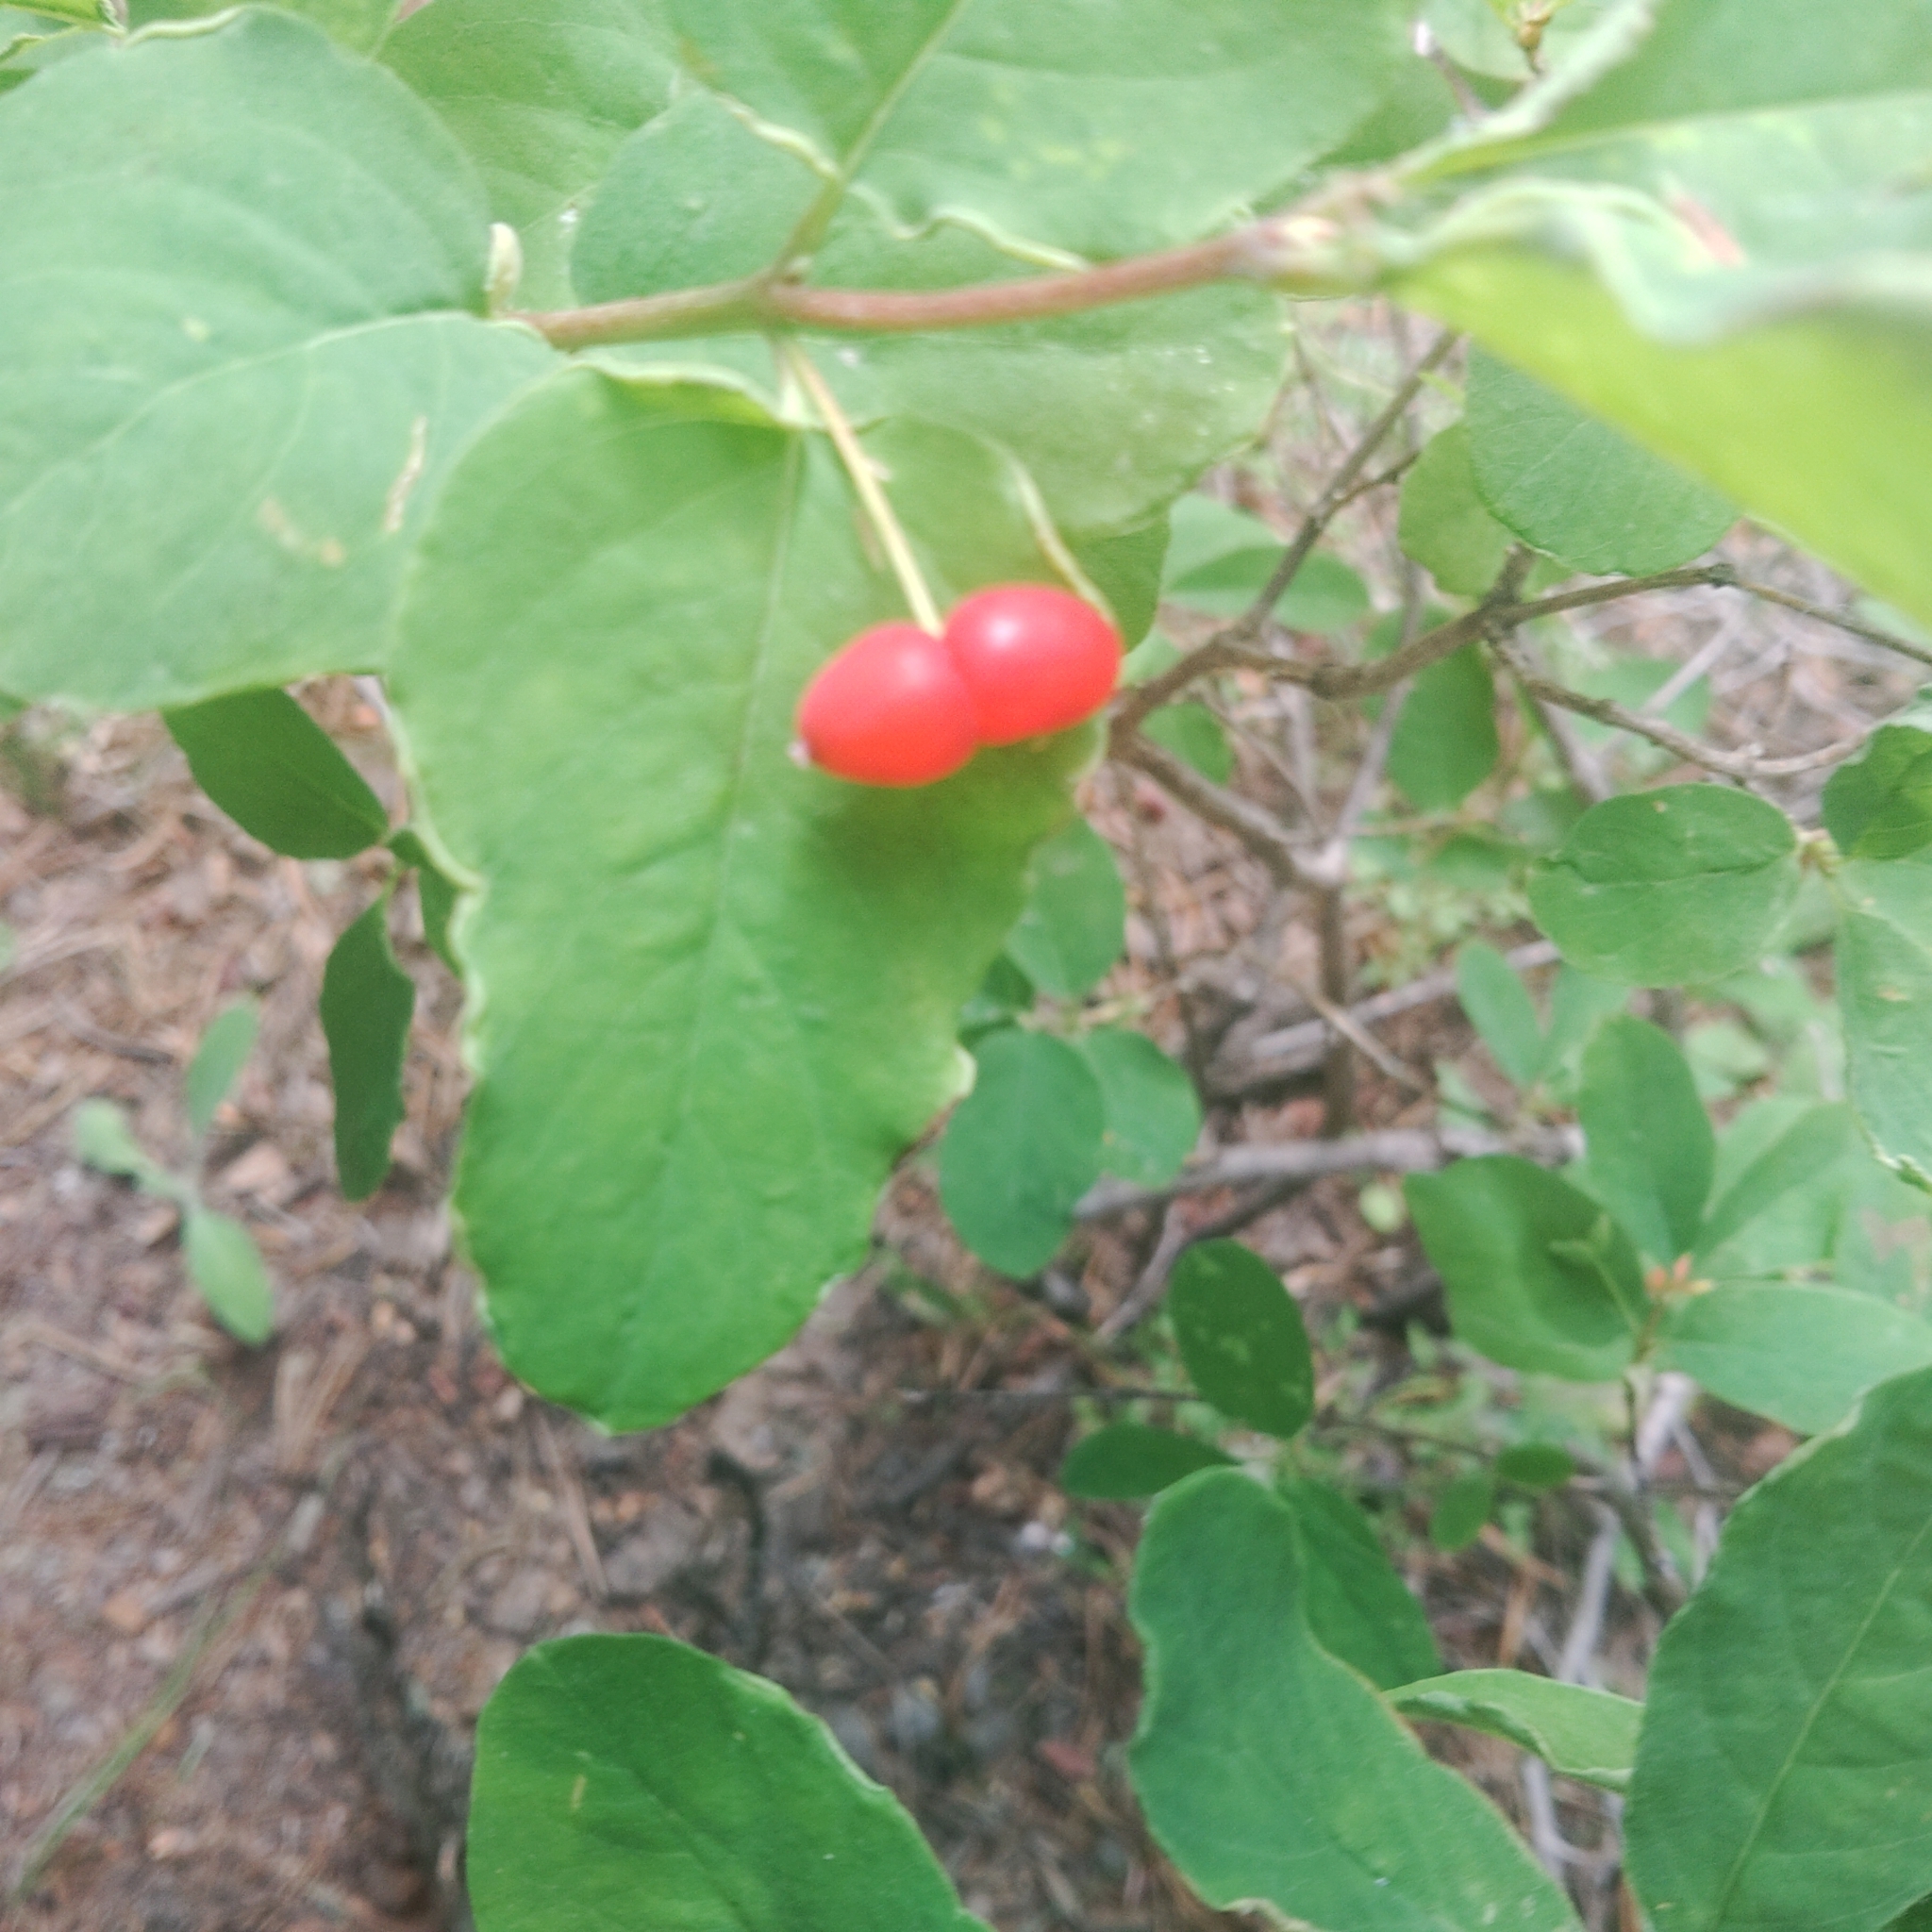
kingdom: Plantae
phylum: Tracheophyta
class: Magnoliopsida
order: Dipsacales
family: Caprifoliaceae
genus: Lonicera
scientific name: Lonicera utahensis
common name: Utah honeysuckle
